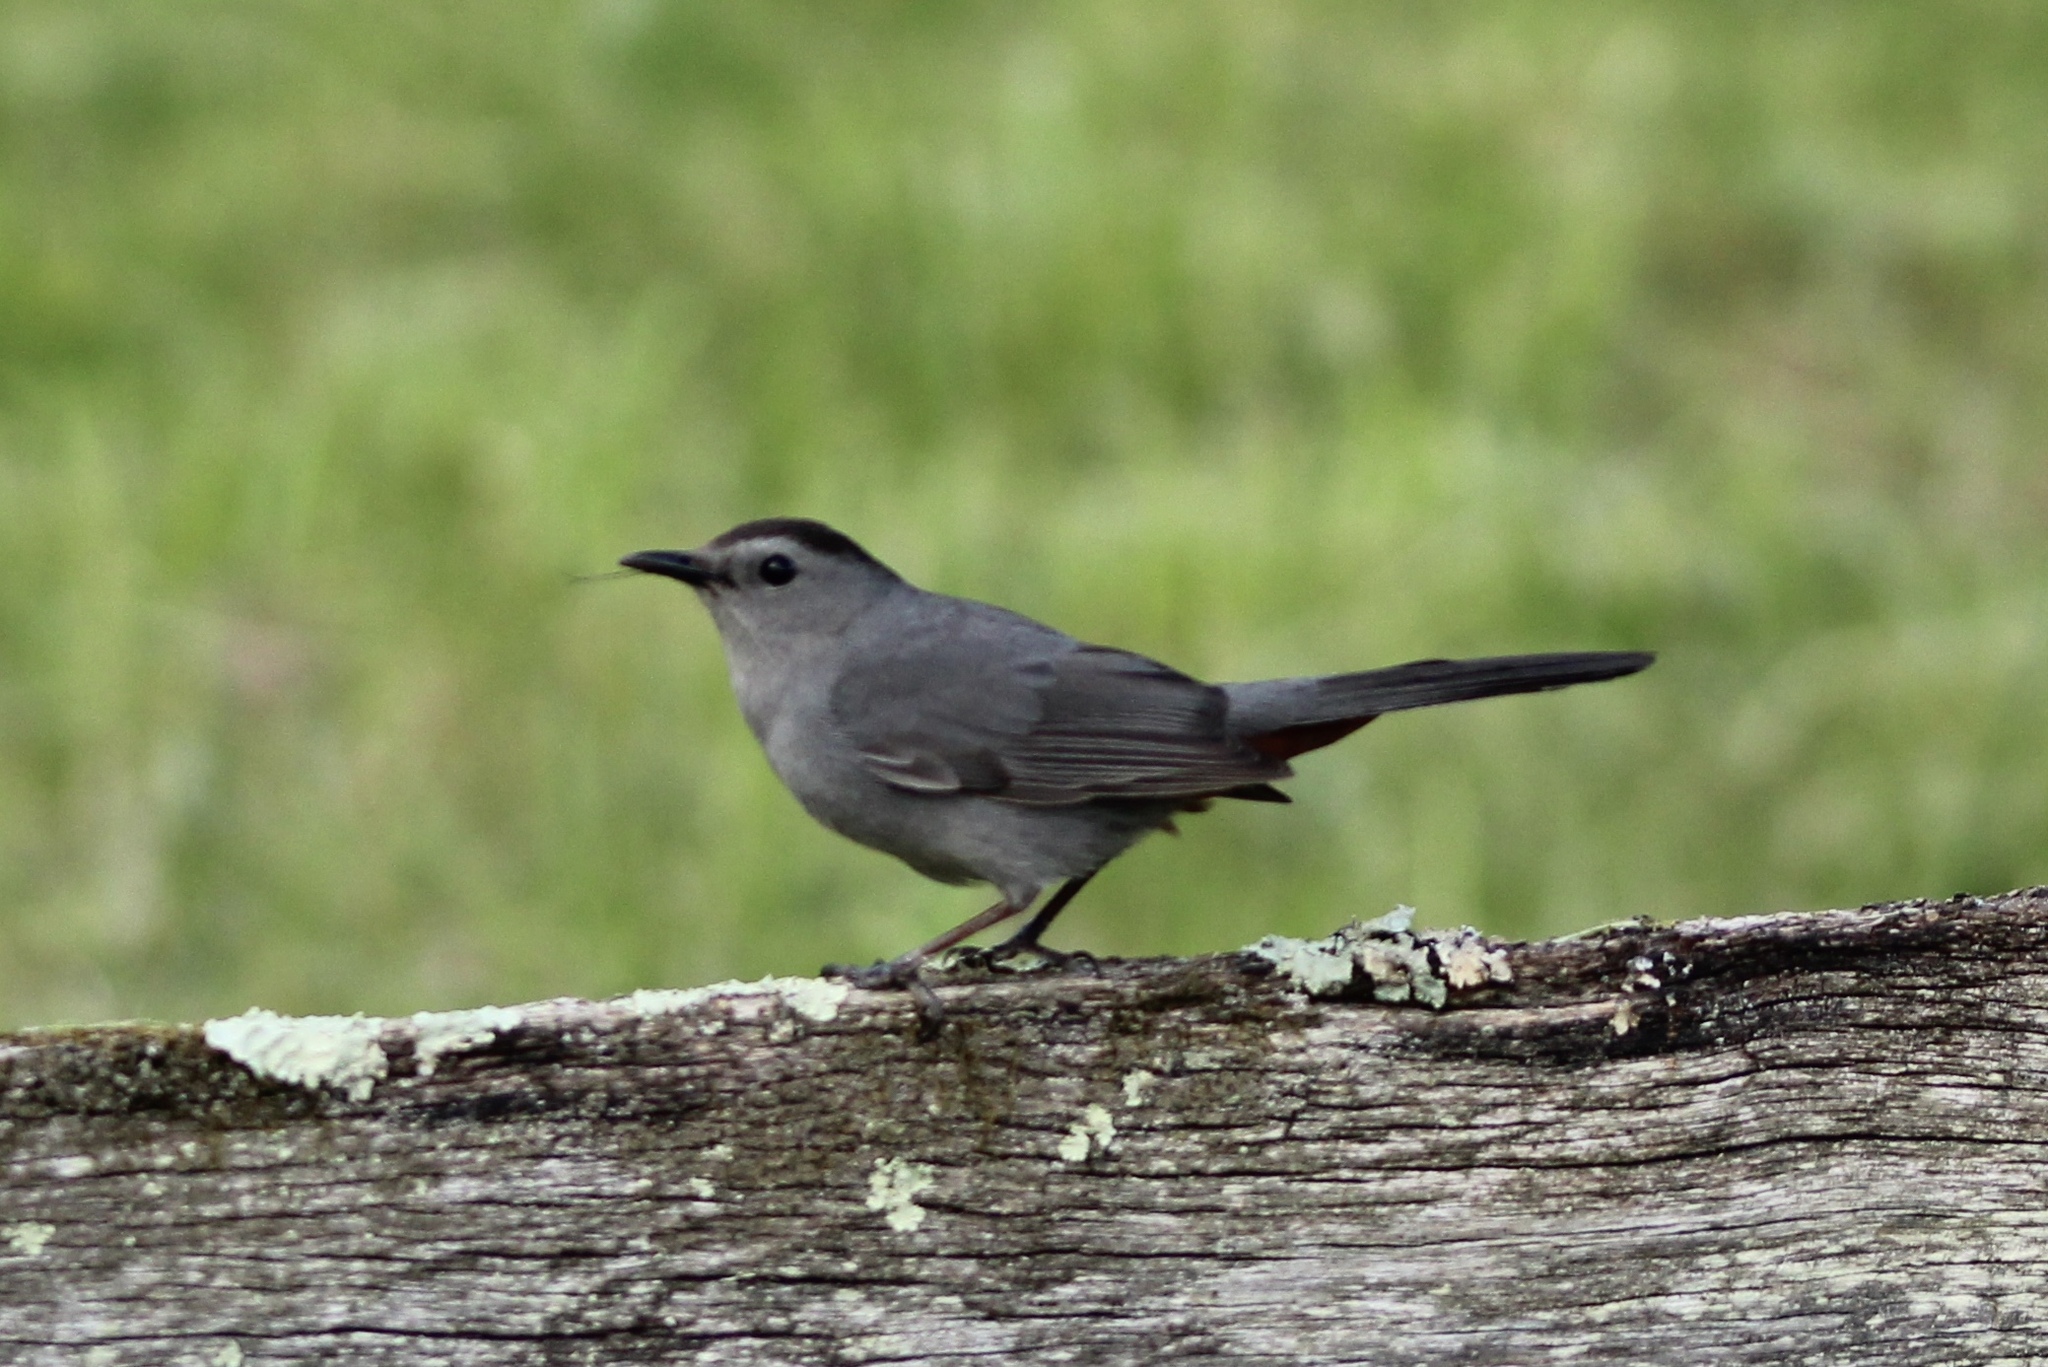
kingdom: Animalia
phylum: Chordata
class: Aves
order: Passeriformes
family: Mimidae
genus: Dumetella
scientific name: Dumetella carolinensis
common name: Gray catbird
